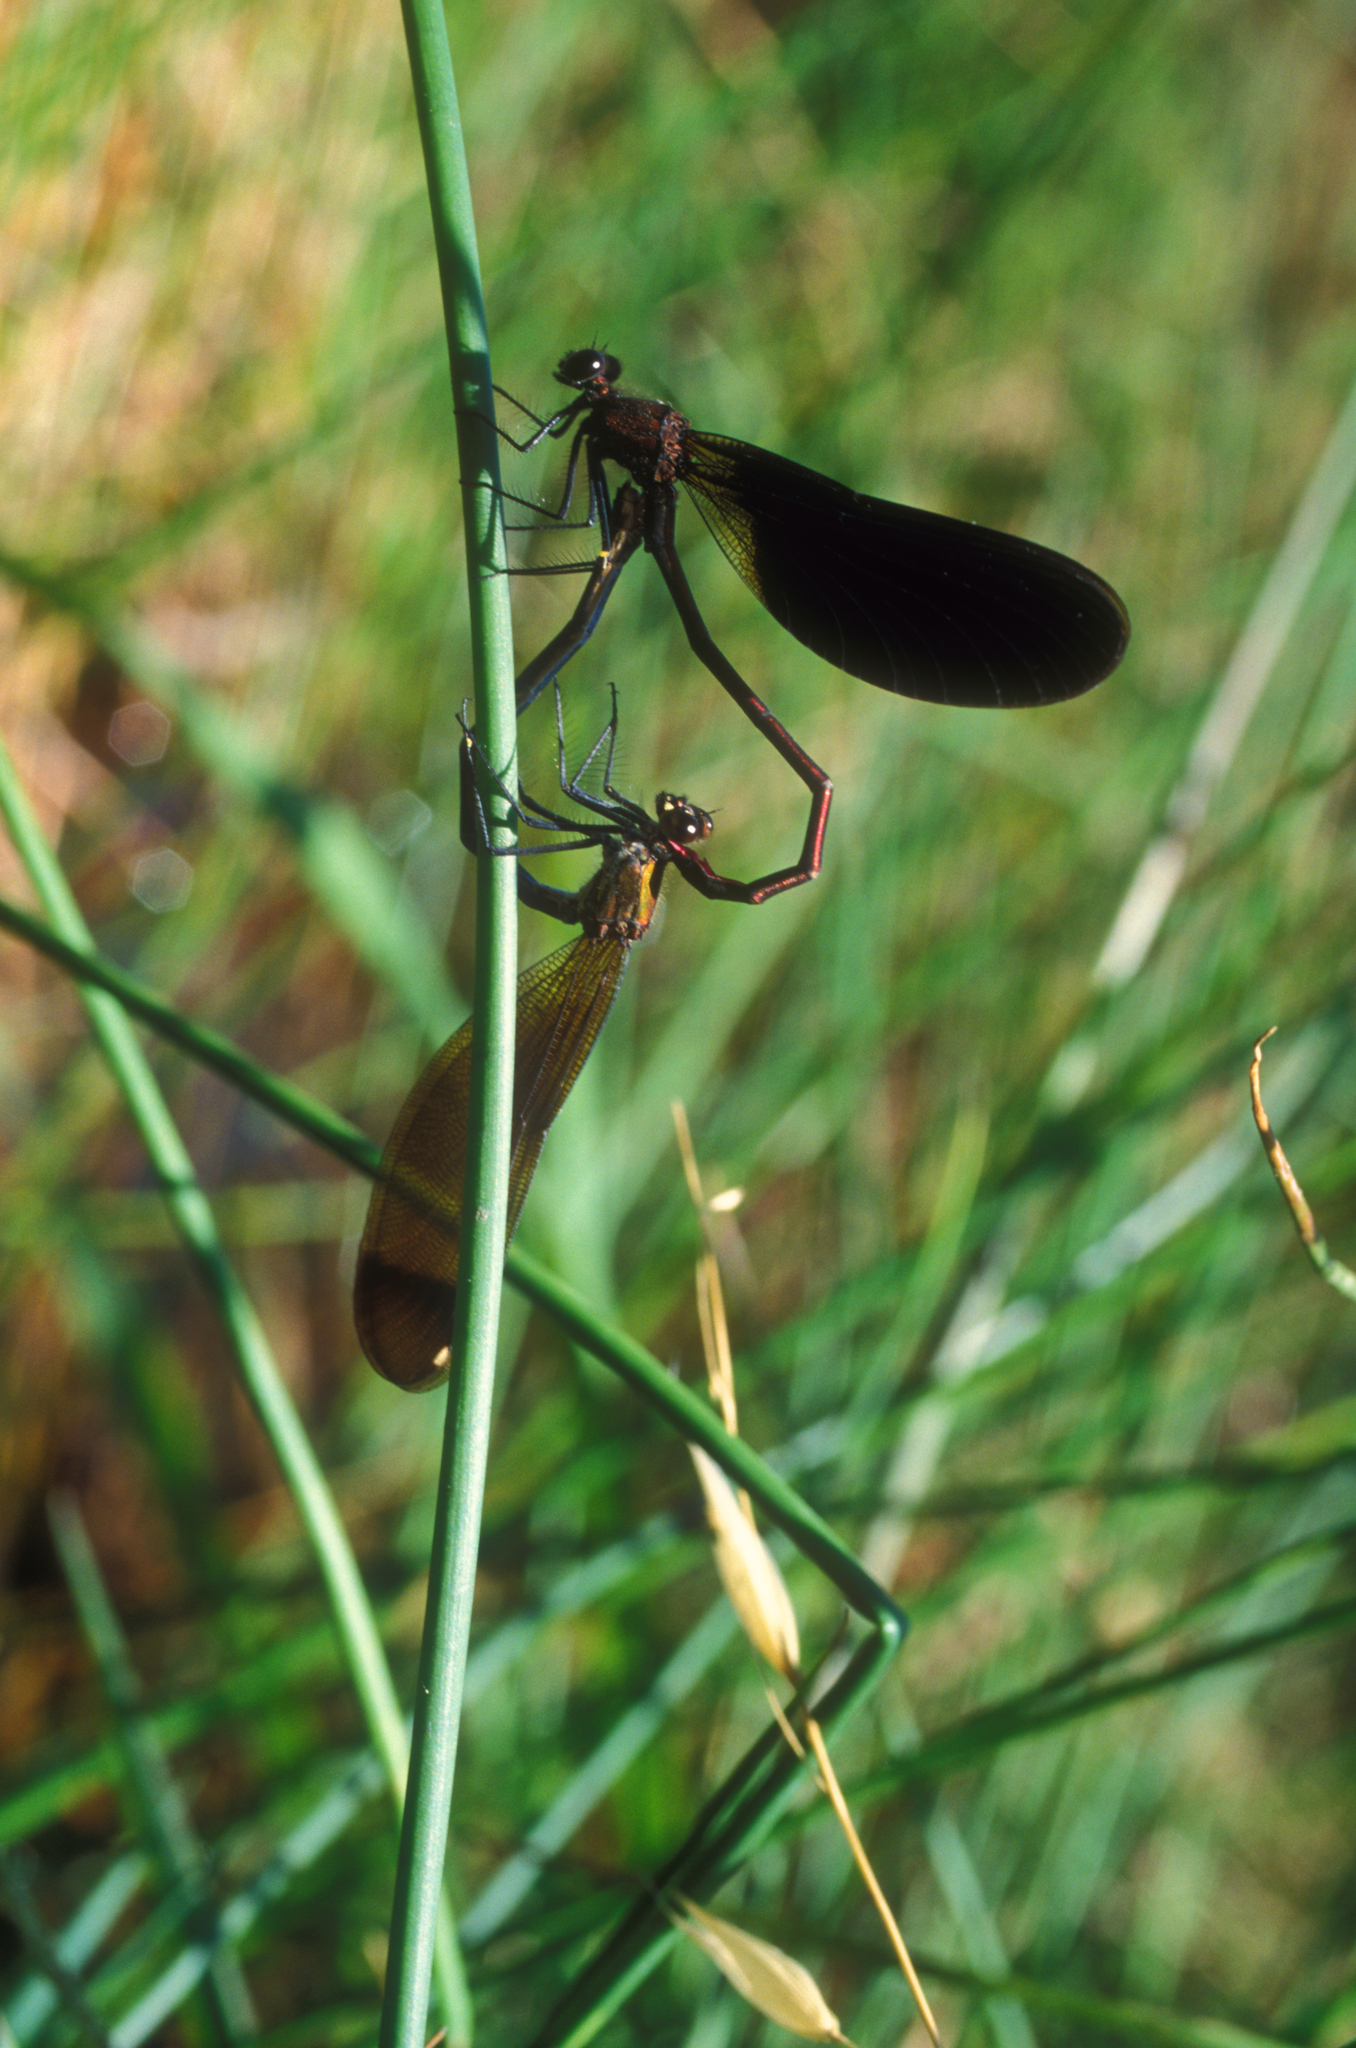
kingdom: Animalia
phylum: Arthropoda
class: Insecta
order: Odonata
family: Calopterygidae
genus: Calopteryx
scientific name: Calopteryx haemorrhoidalis
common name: Copper demoiselle
